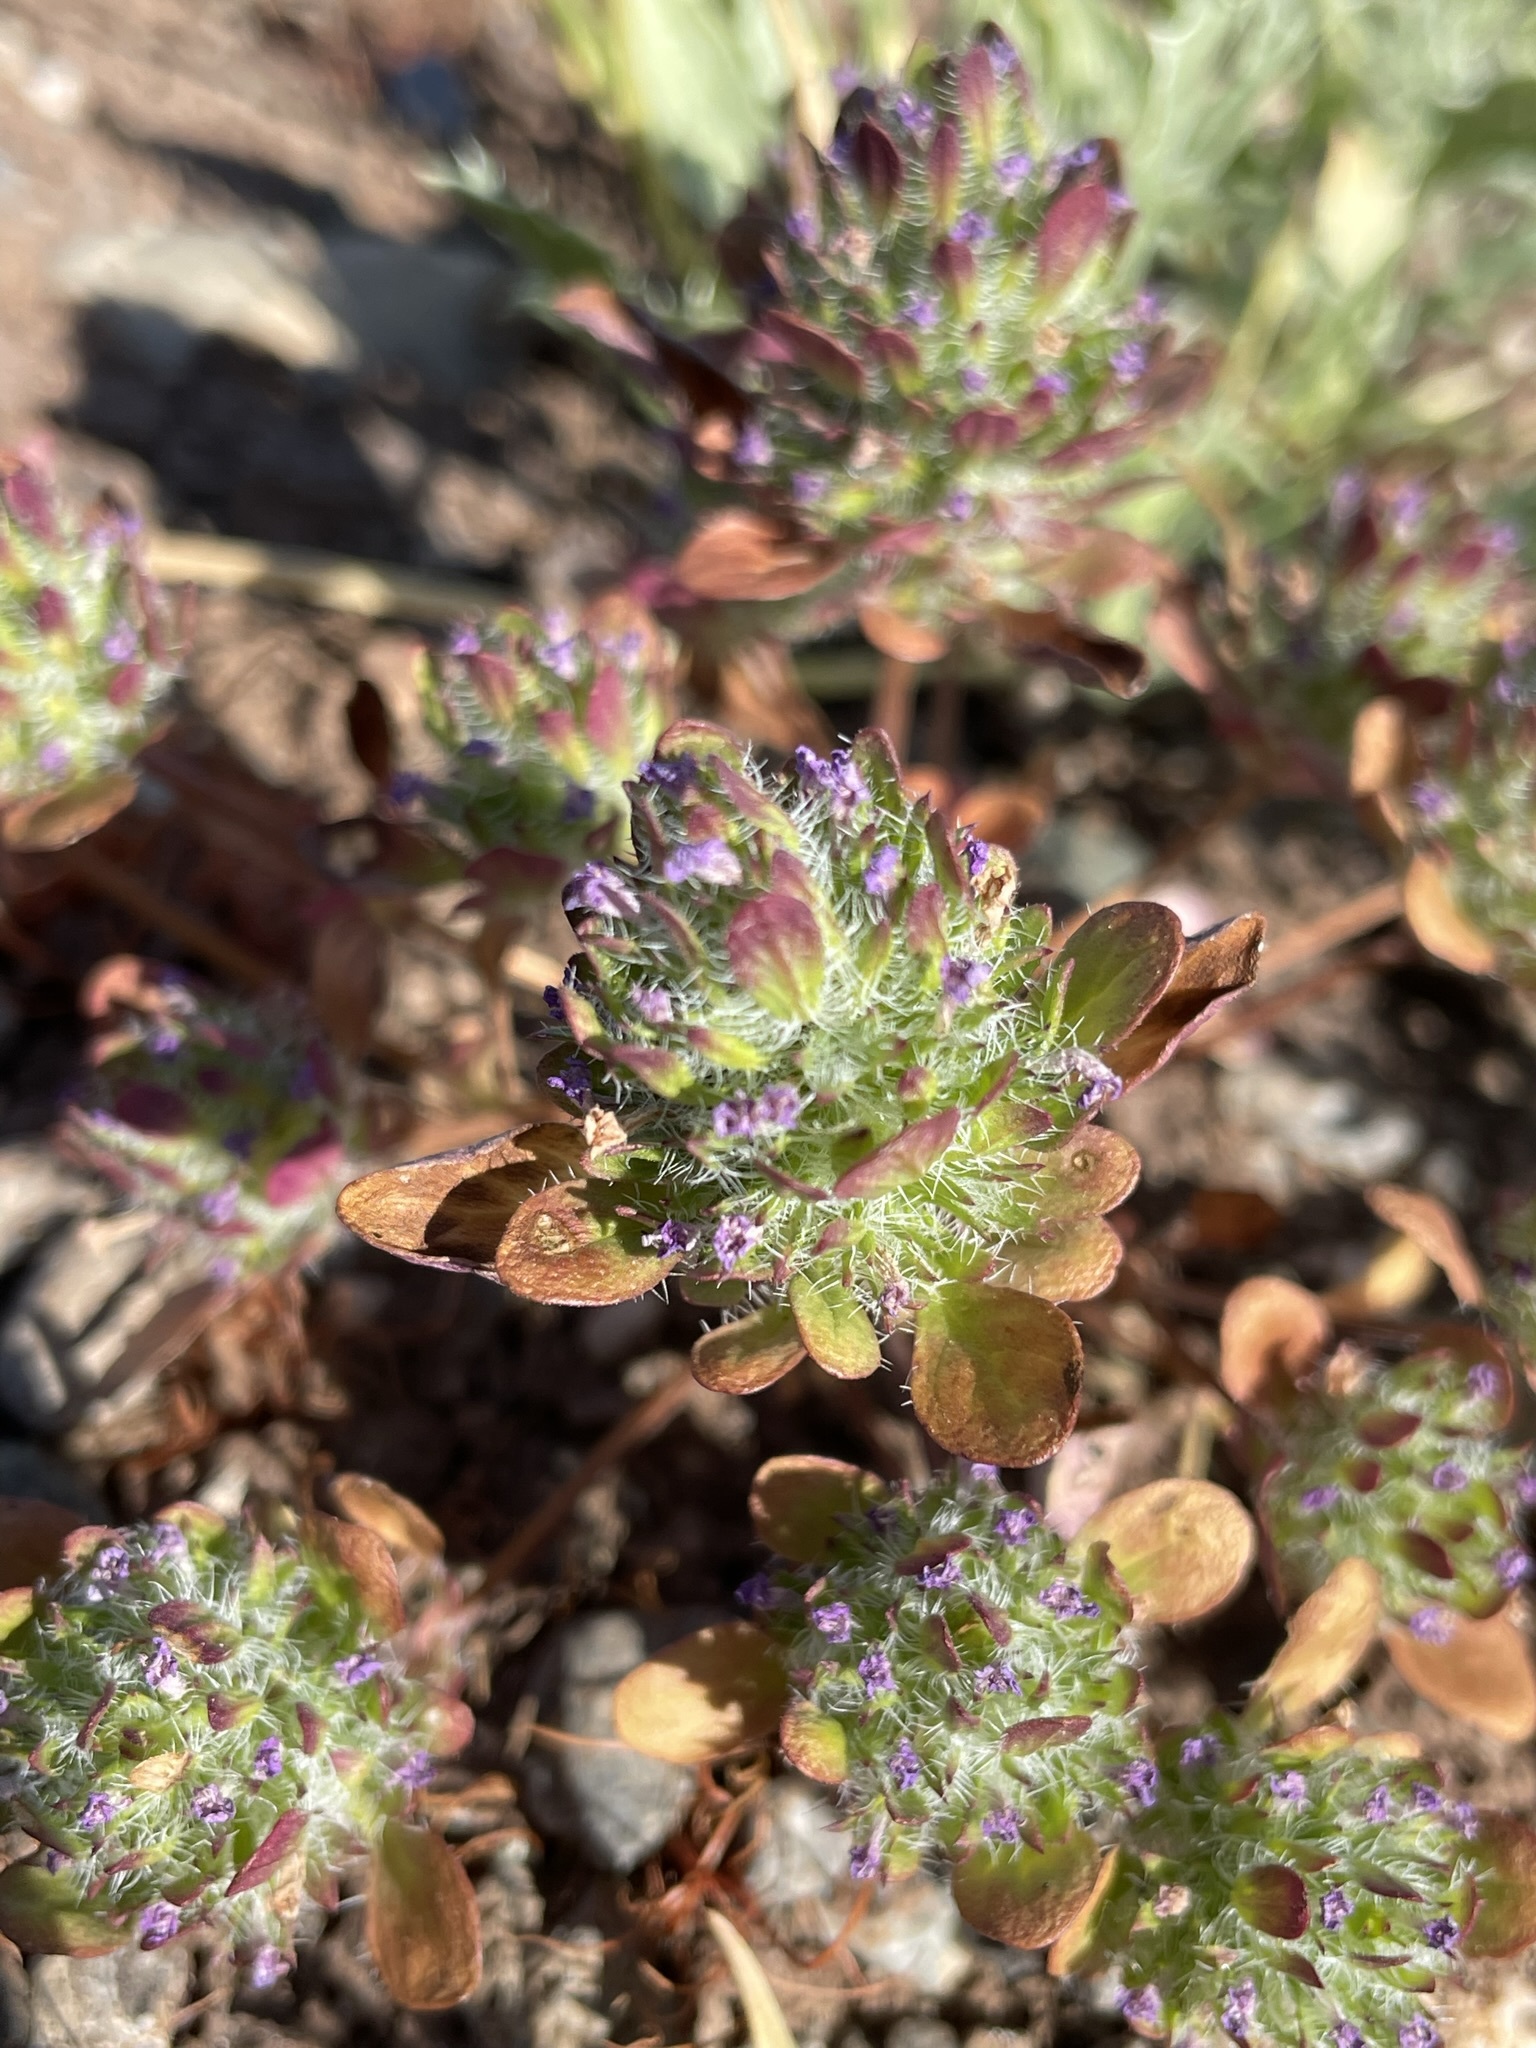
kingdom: Plantae
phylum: Tracheophyta
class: Magnoliopsida
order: Lamiales
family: Lamiaceae
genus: Pogogyne
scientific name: Pogogyne zizyphoroides
